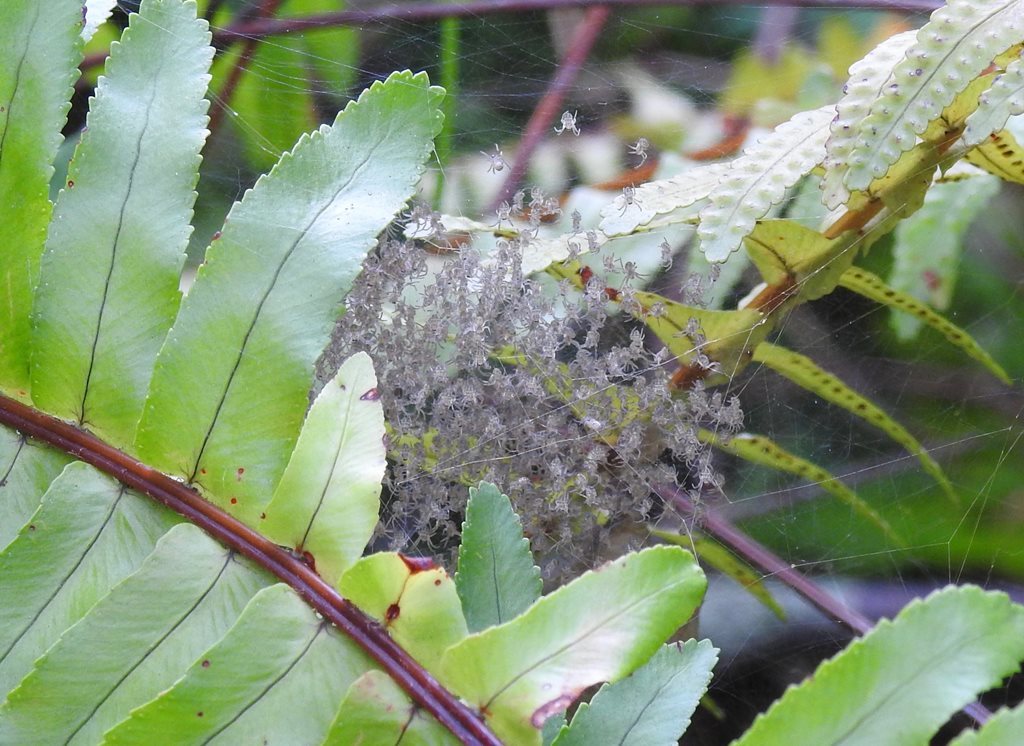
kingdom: Animalia
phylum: Arthropoda
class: Arachnida
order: Araneae
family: Araneidae
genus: Argiope
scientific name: Argiope keyserlingi
